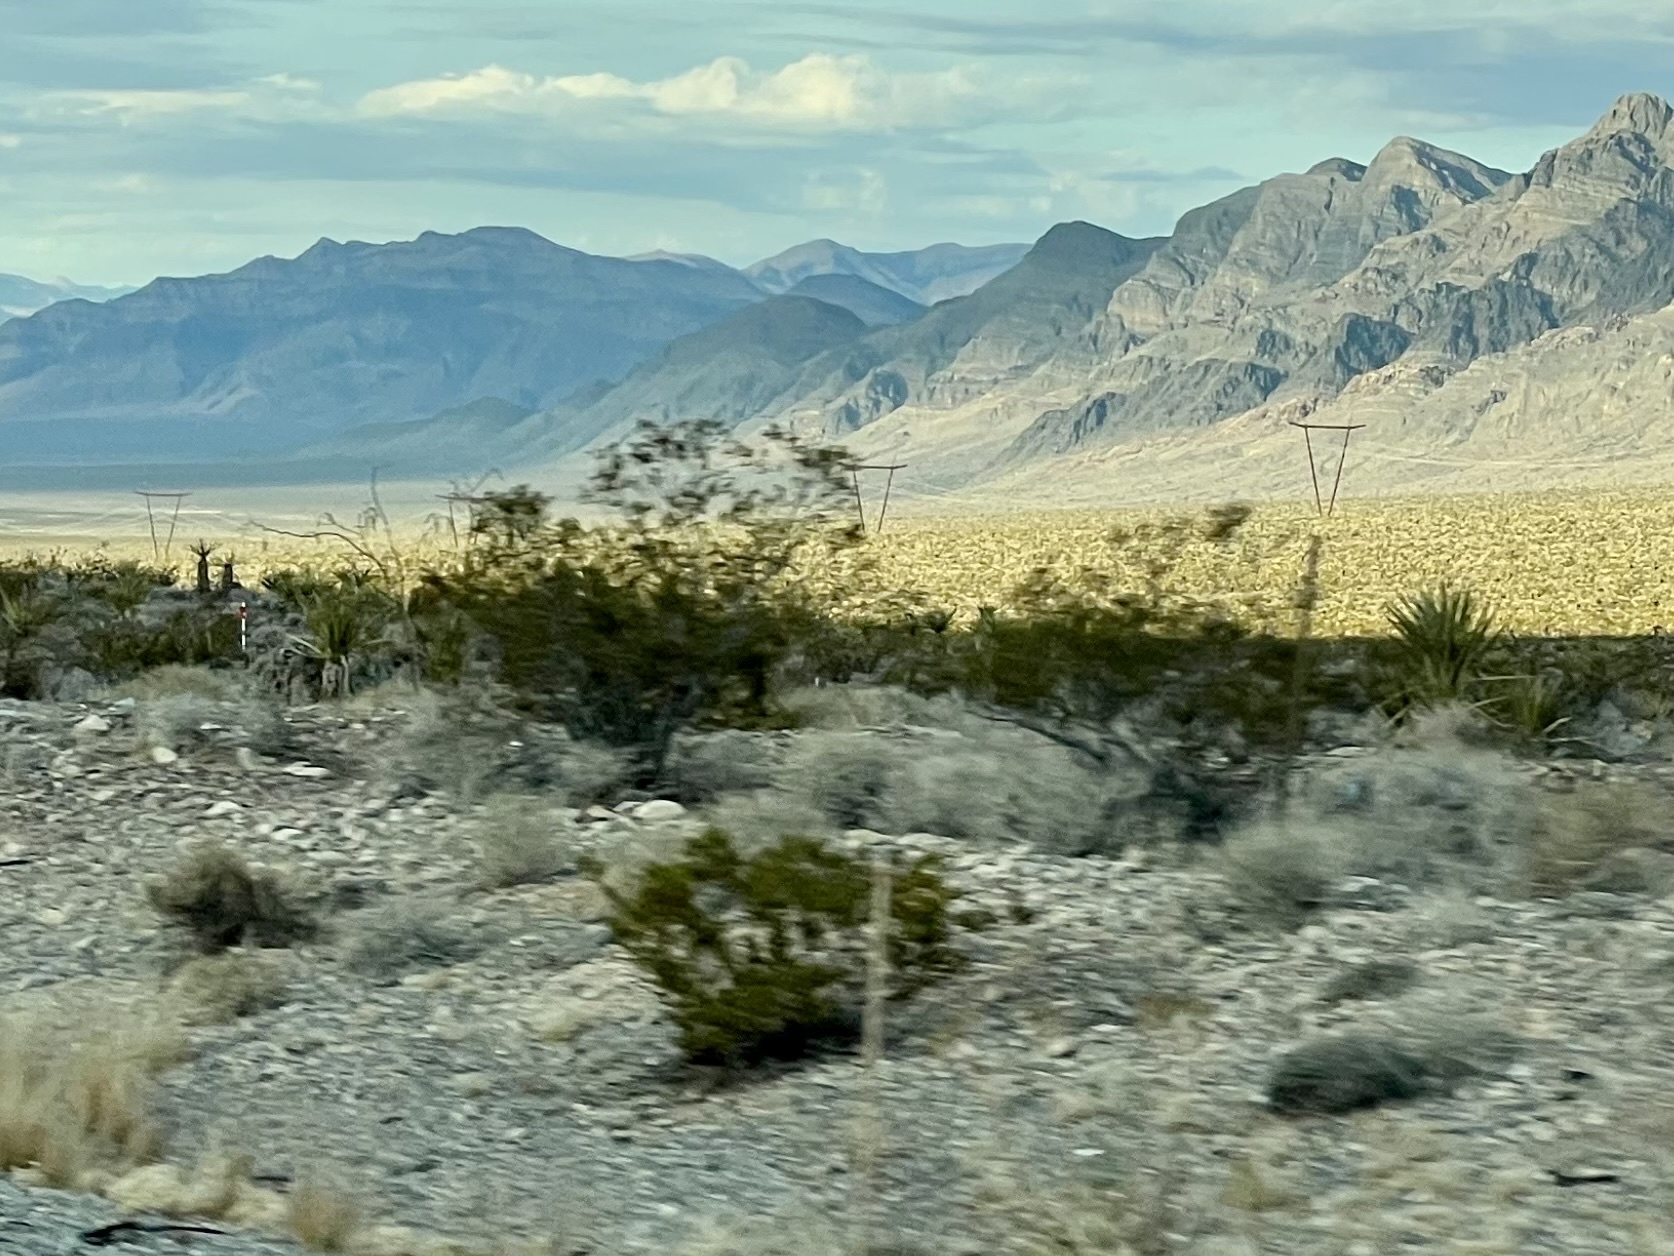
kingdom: Plantae
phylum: Tracheophyta
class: Magnoliopsida
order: Zygophyllales
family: Zygophyllaceae
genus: Larrea
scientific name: Larrea tridentata
